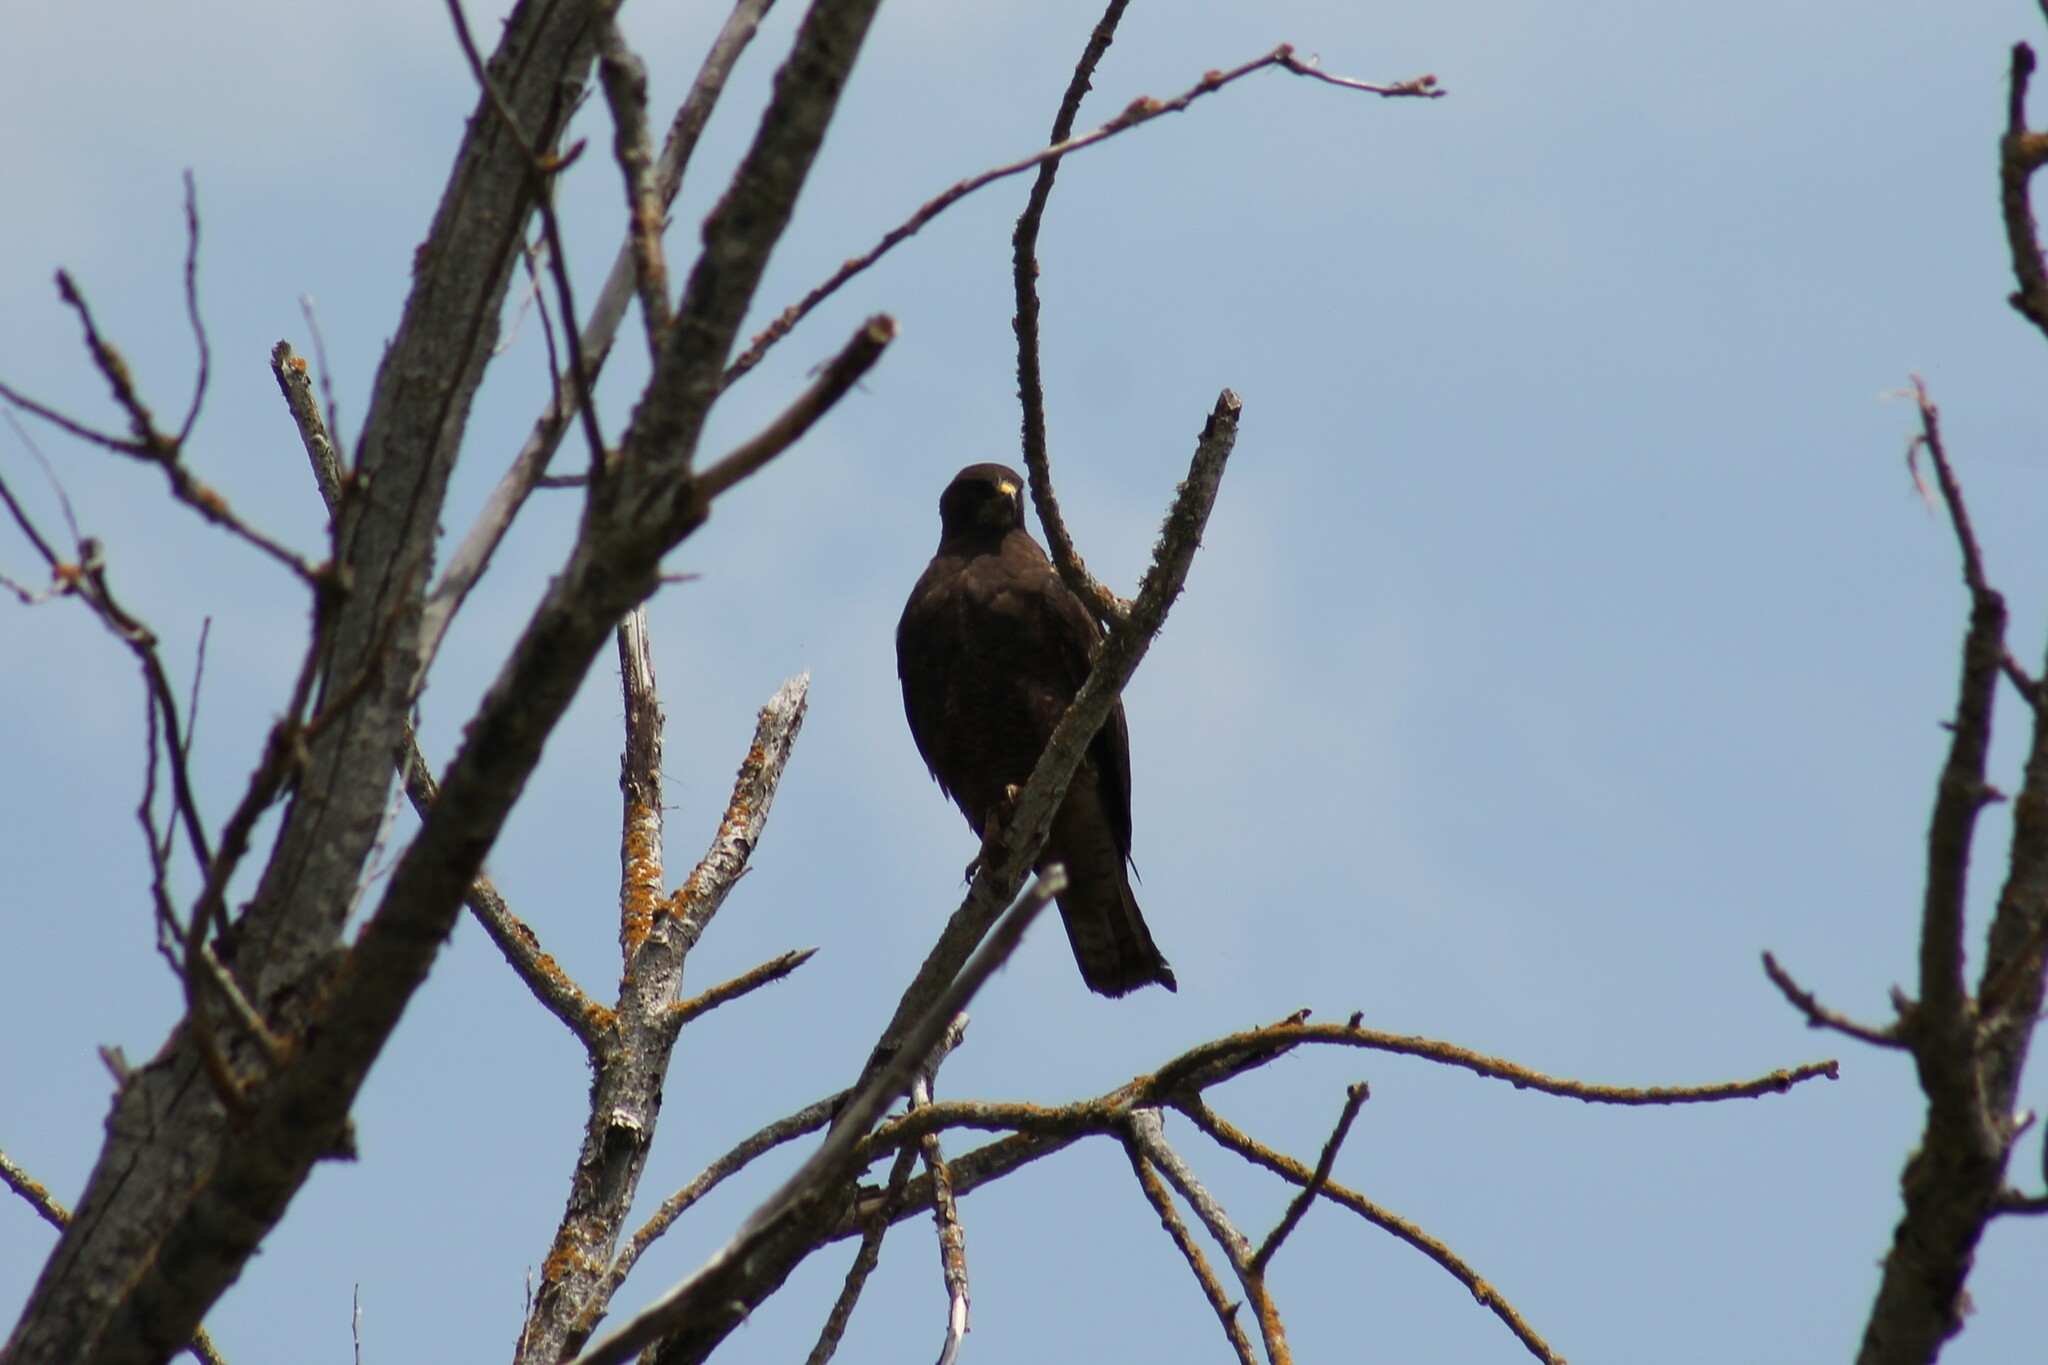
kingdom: Animalia
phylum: Chordata
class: Aves
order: Accipitriformes
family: Accipitridae
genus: Buteo
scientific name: Buteo swainsoni
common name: Swainson's hawk
